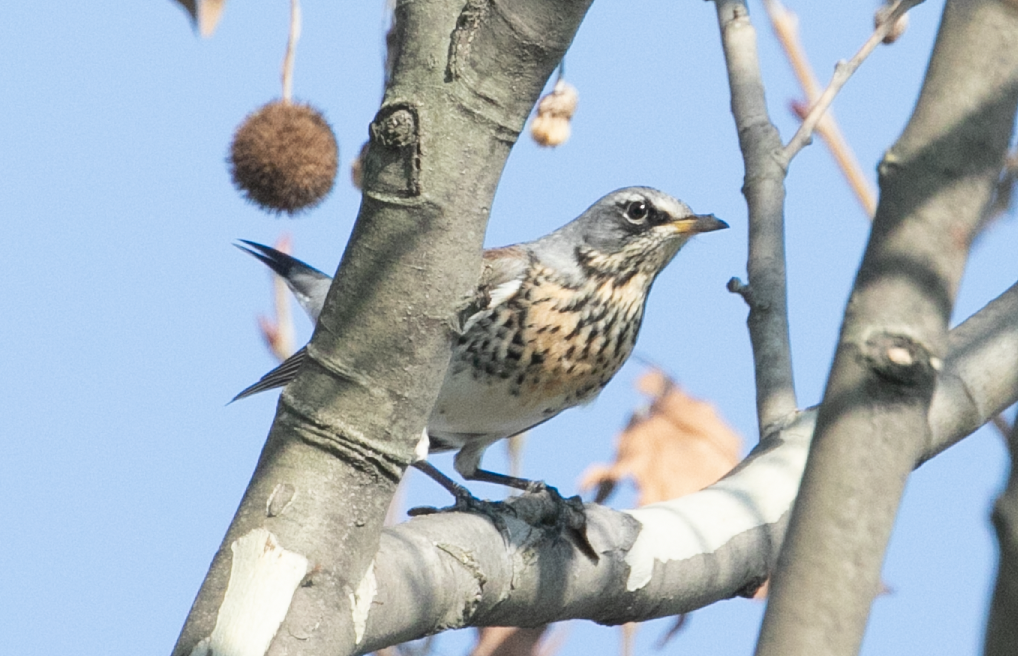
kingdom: Animalia
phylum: Chordata
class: Aves
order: Passeriformes
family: Turdidae
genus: Turdus
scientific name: Turdus pilaris
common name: Fieldfare
